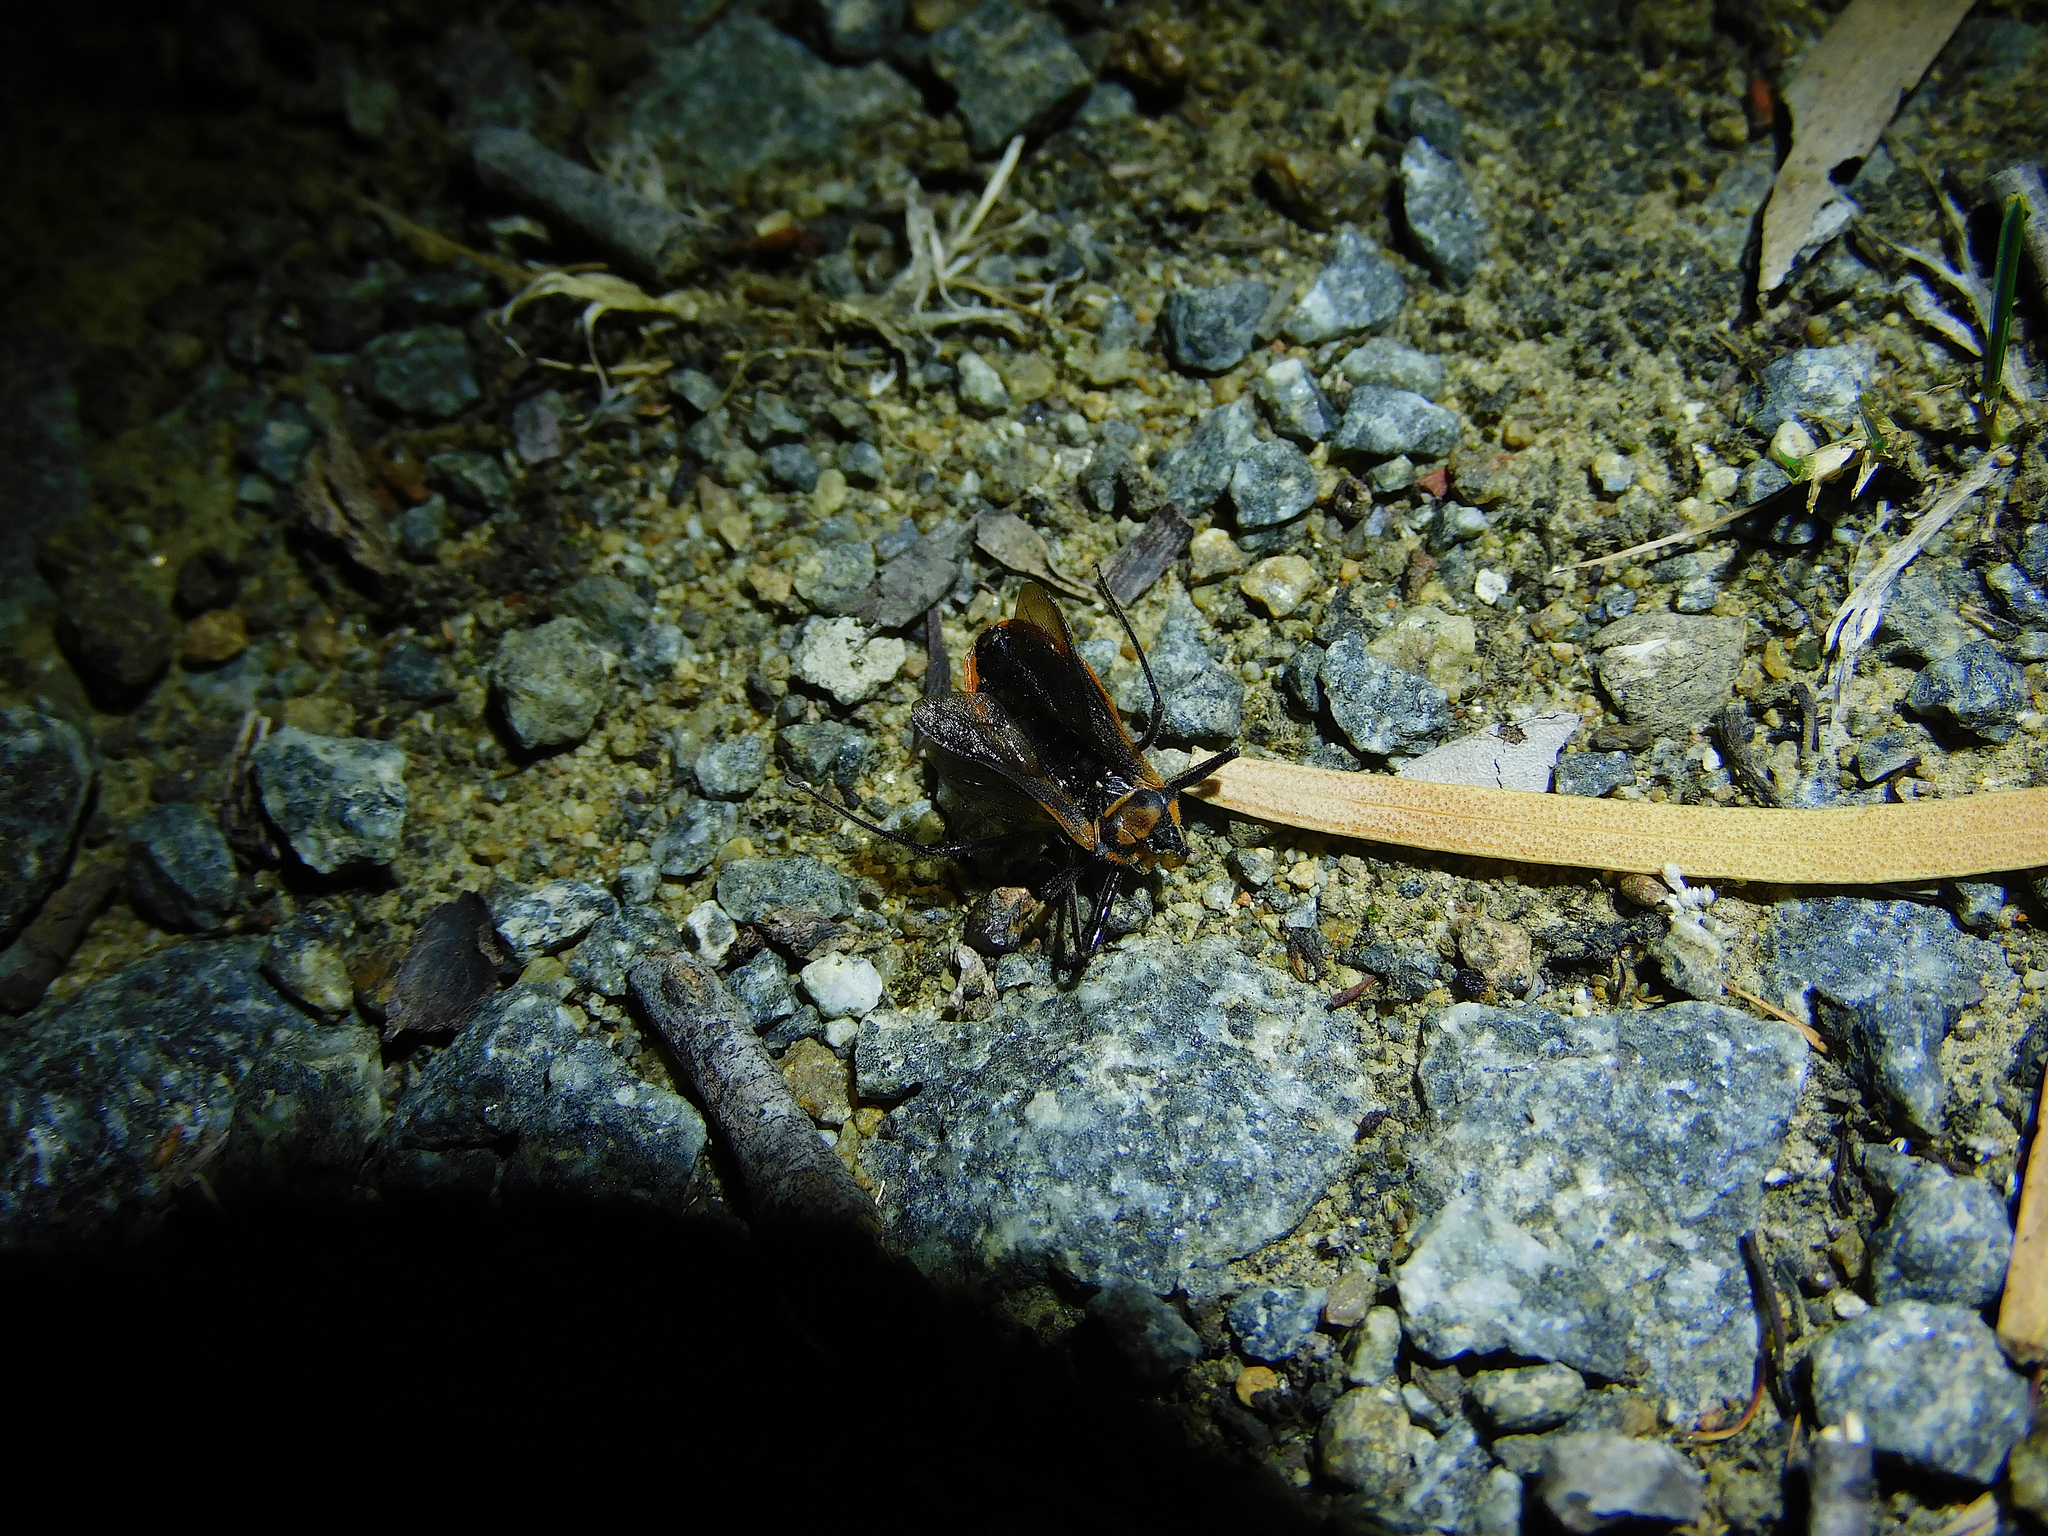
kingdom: Animalia
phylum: Arthropoda
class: Insecta
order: Hemiptera
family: Reduviidae
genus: Gminatus
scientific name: Gminatus australis
